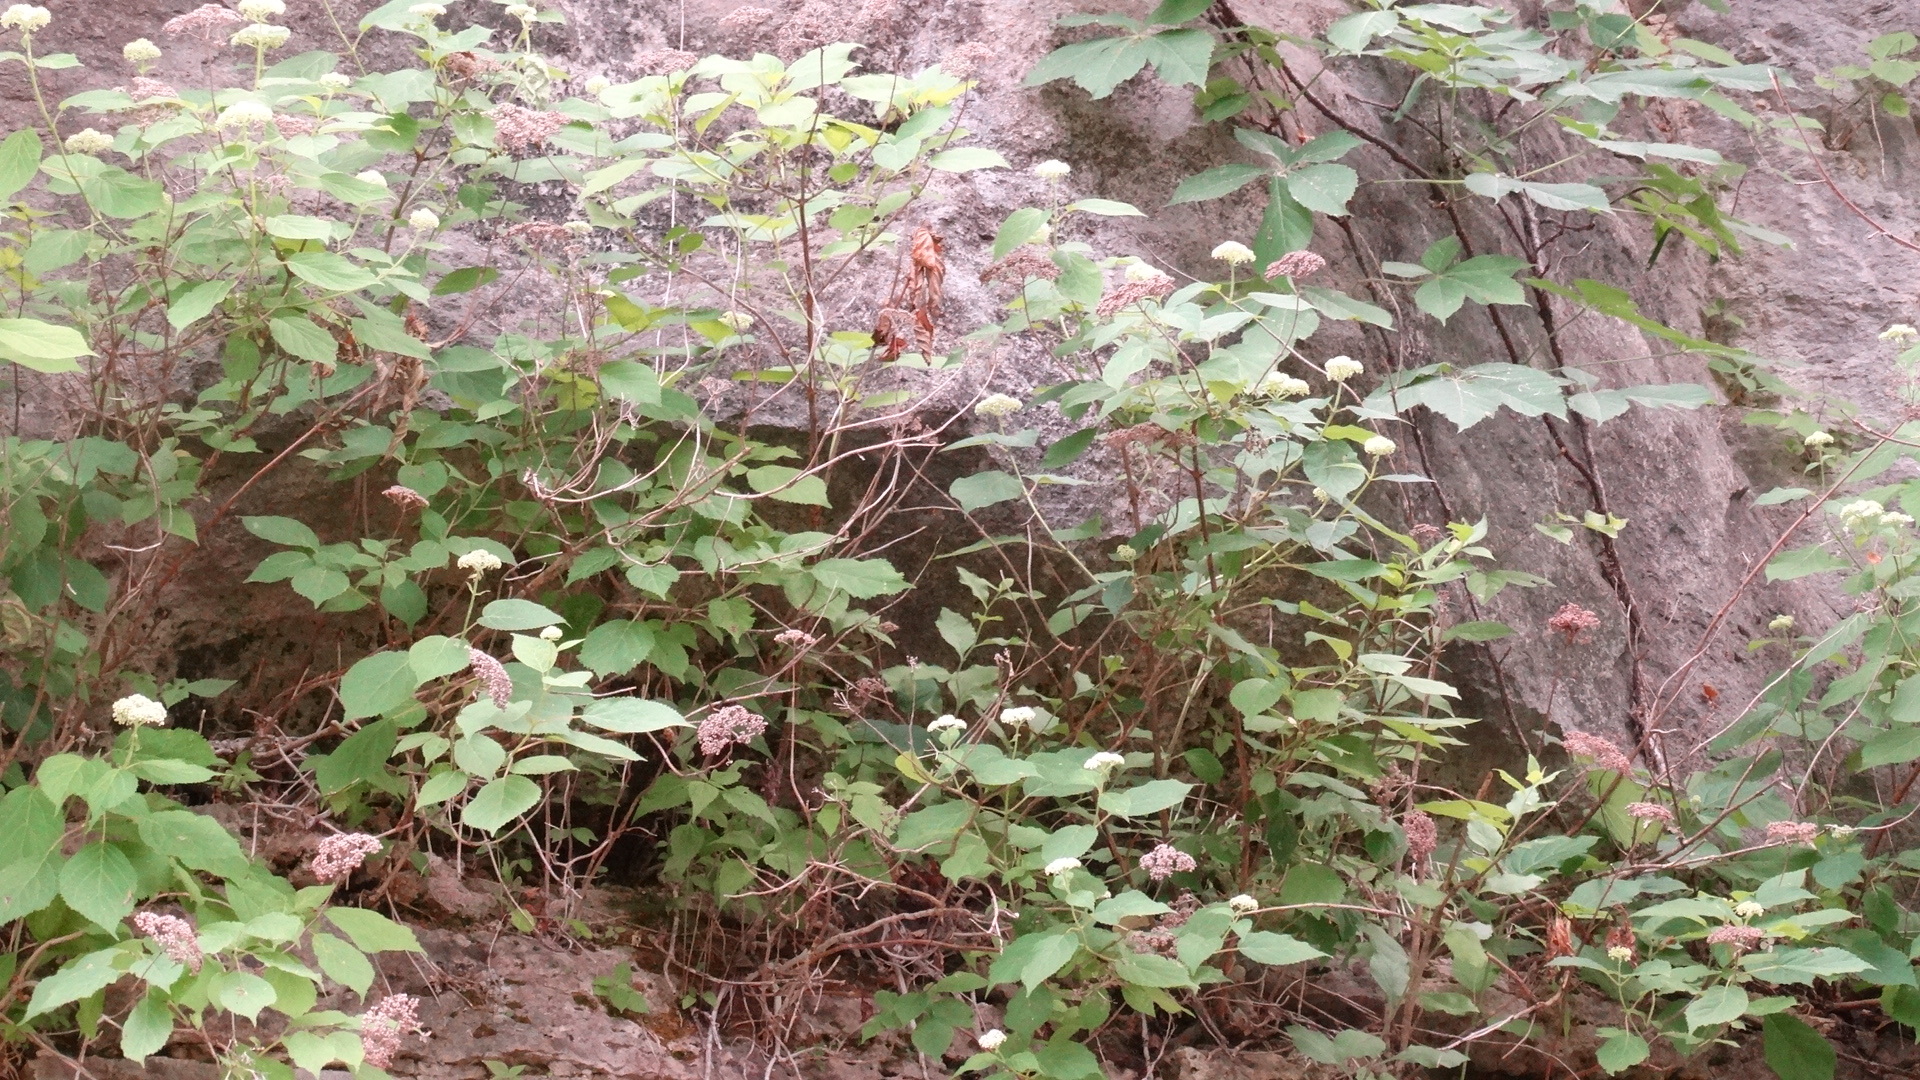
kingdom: Plantae
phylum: Tracheophyta
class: Magnoliopsida
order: Cornales
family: Hydrangeaceae
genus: Hydrangea
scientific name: Hydrangea arborescens
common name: Sevenbark
